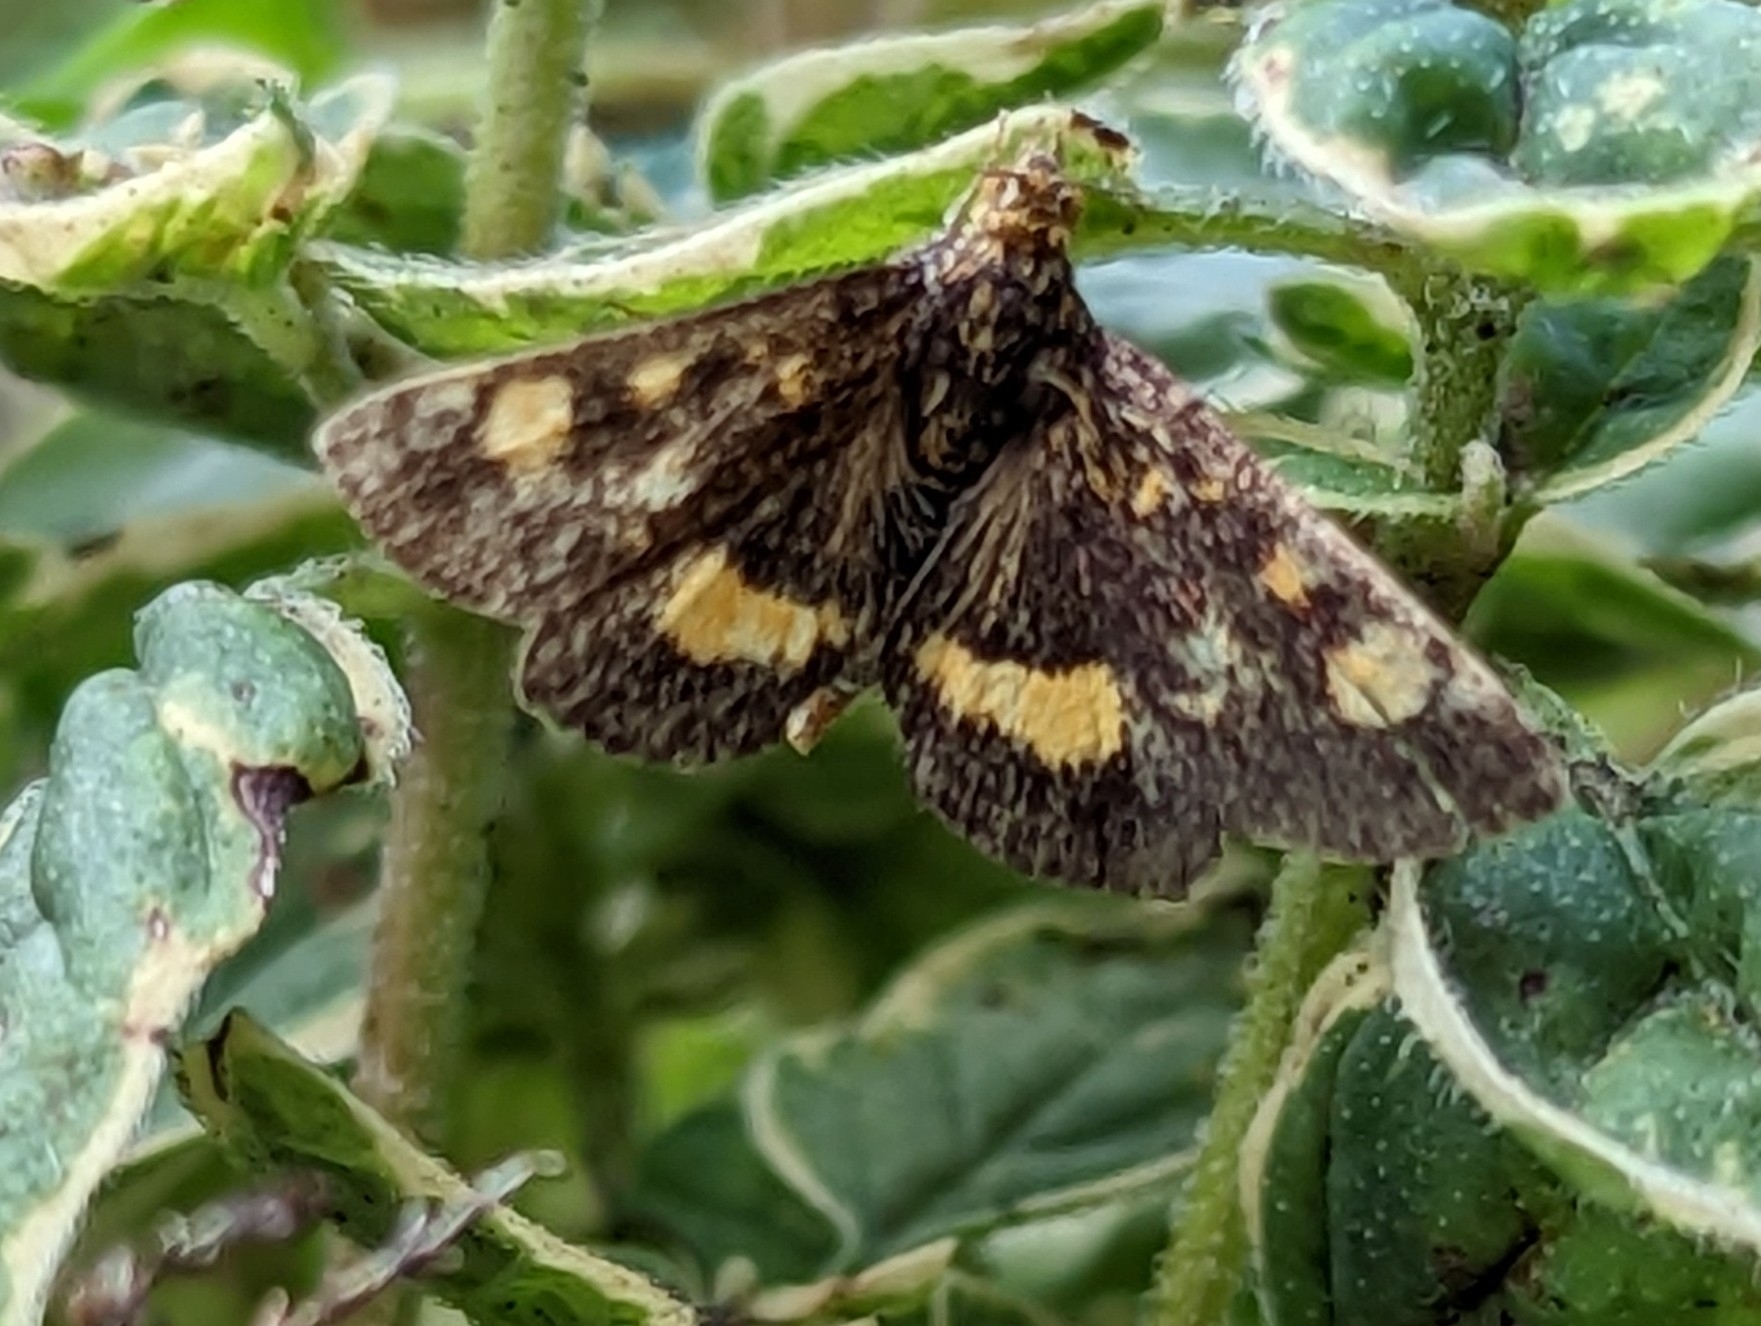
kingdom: Animalia
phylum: Arthropoda
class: Insecta
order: Lepidoptera
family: Crambidae
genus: Pyrausta
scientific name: Pyrausta aurata
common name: Small purple & gold
